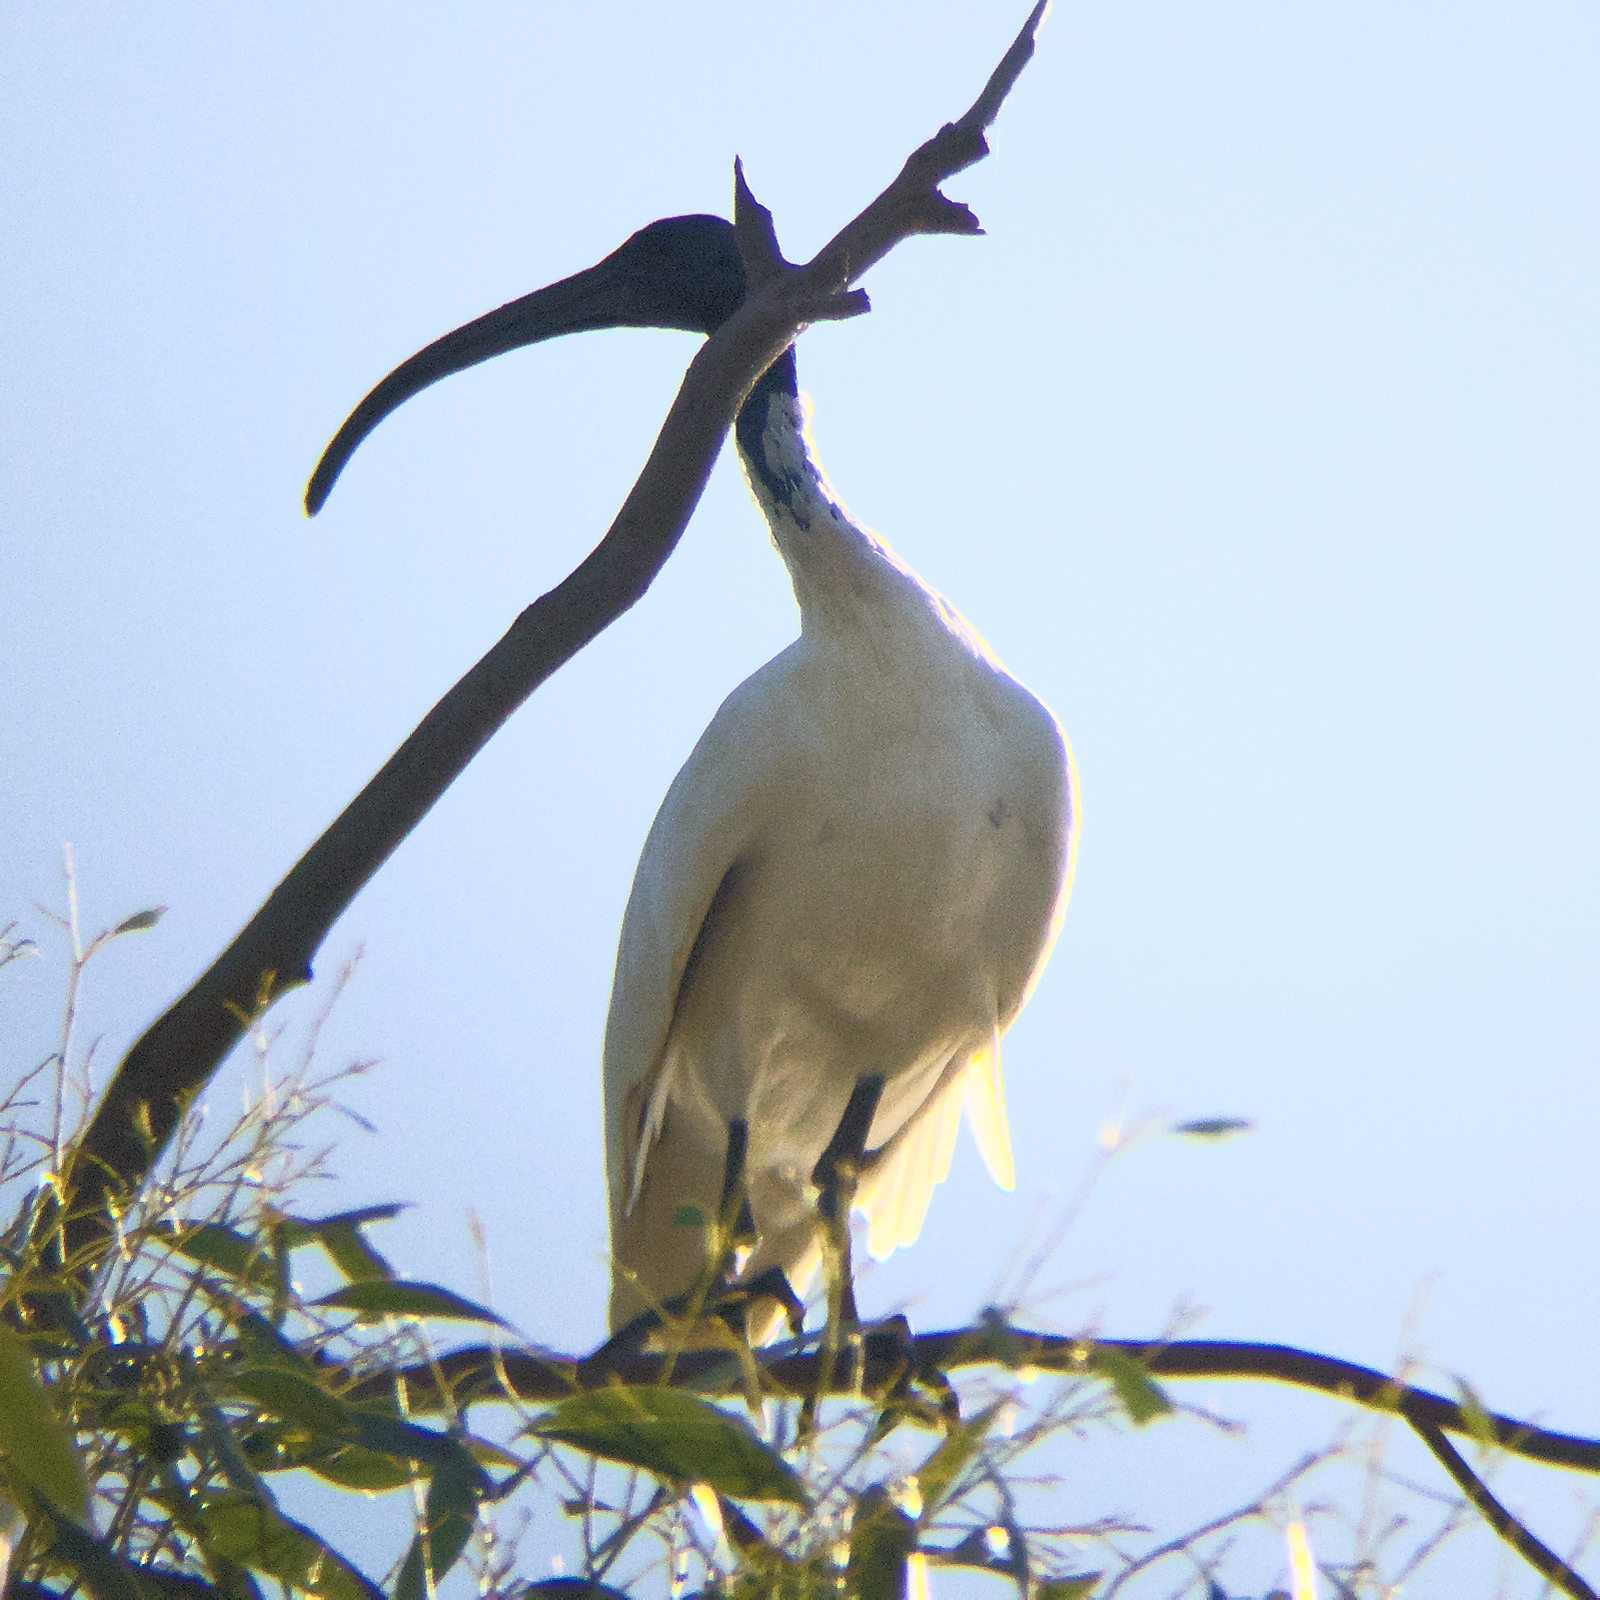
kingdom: Animalia
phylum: Chordata
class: Aves
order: Pelecaniformes
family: Threskiornithidae
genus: Threskiornis
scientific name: Threskiornis molucca
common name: Australian white ibis
